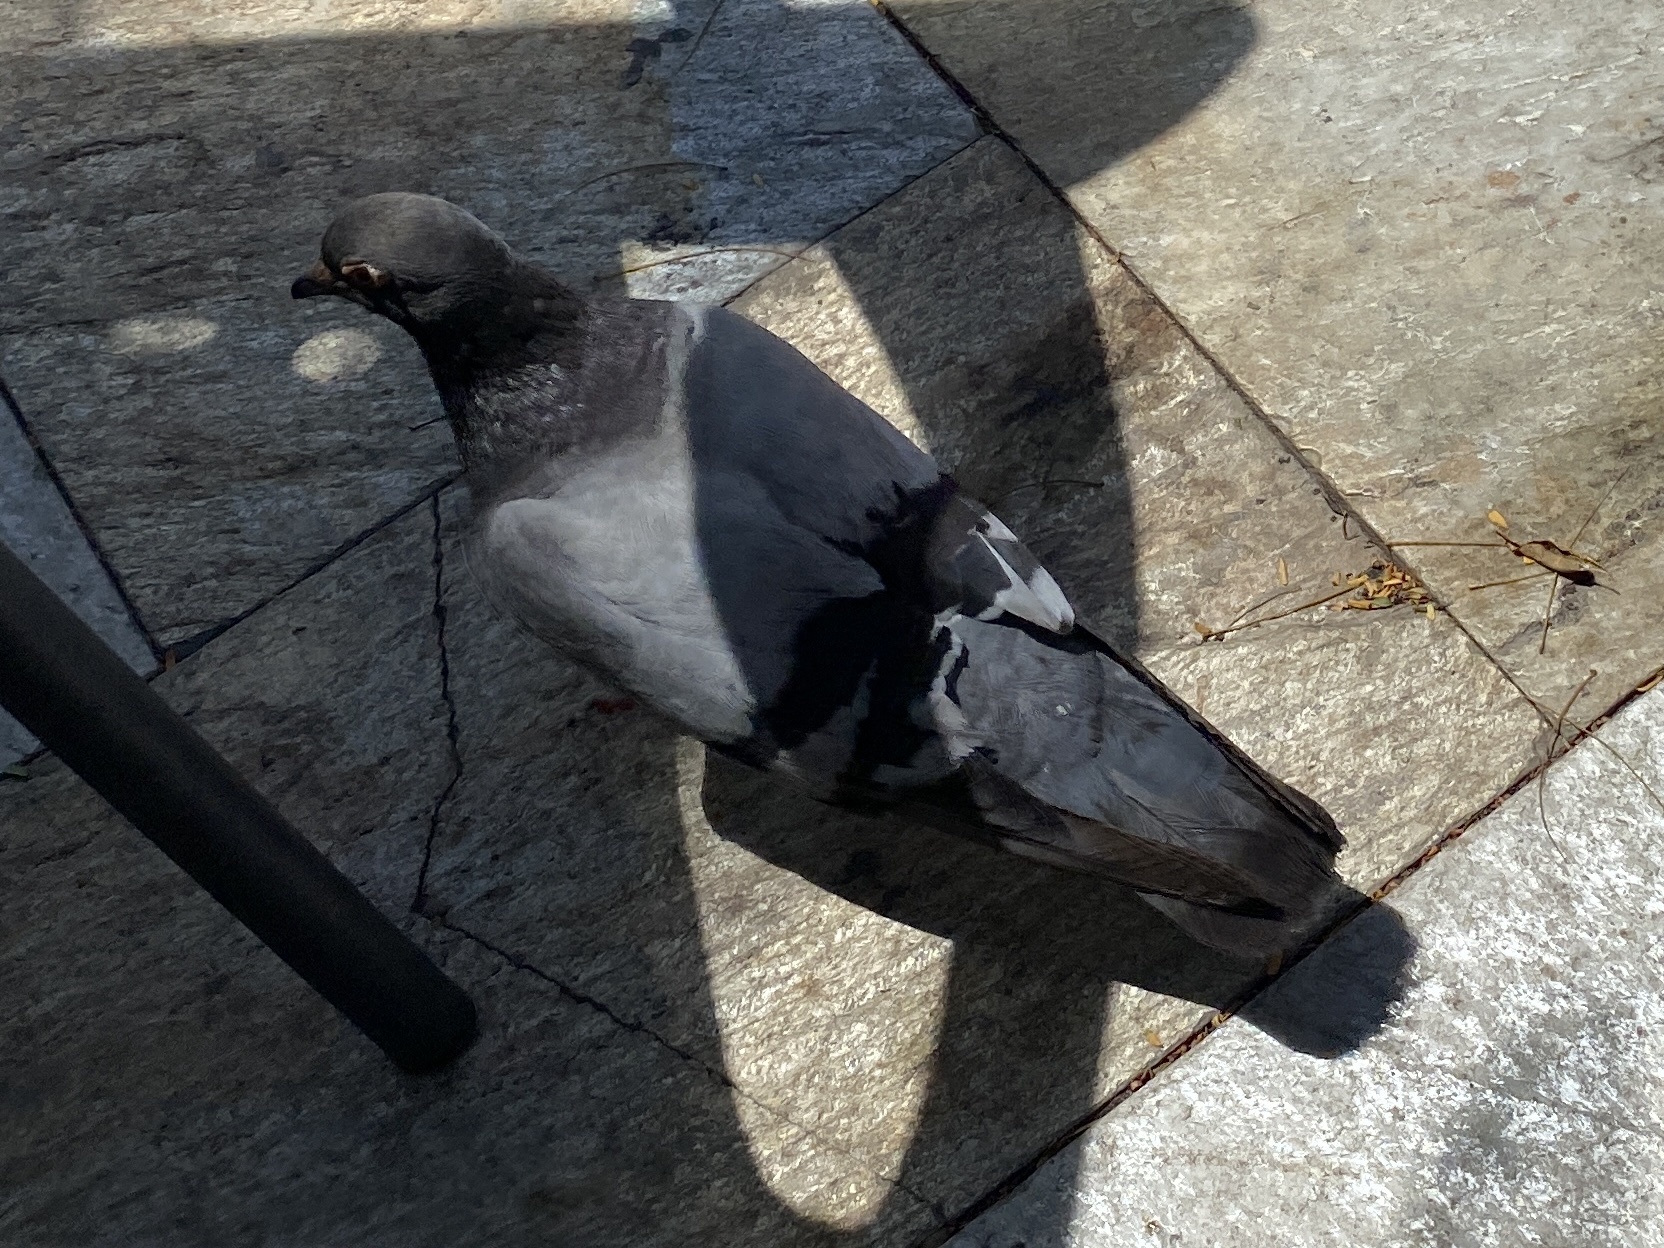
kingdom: Animalia
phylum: Chordata
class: Aves
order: Columbiformes
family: Columbidae
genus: Columba
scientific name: Columba livia
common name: Rock pigeon
